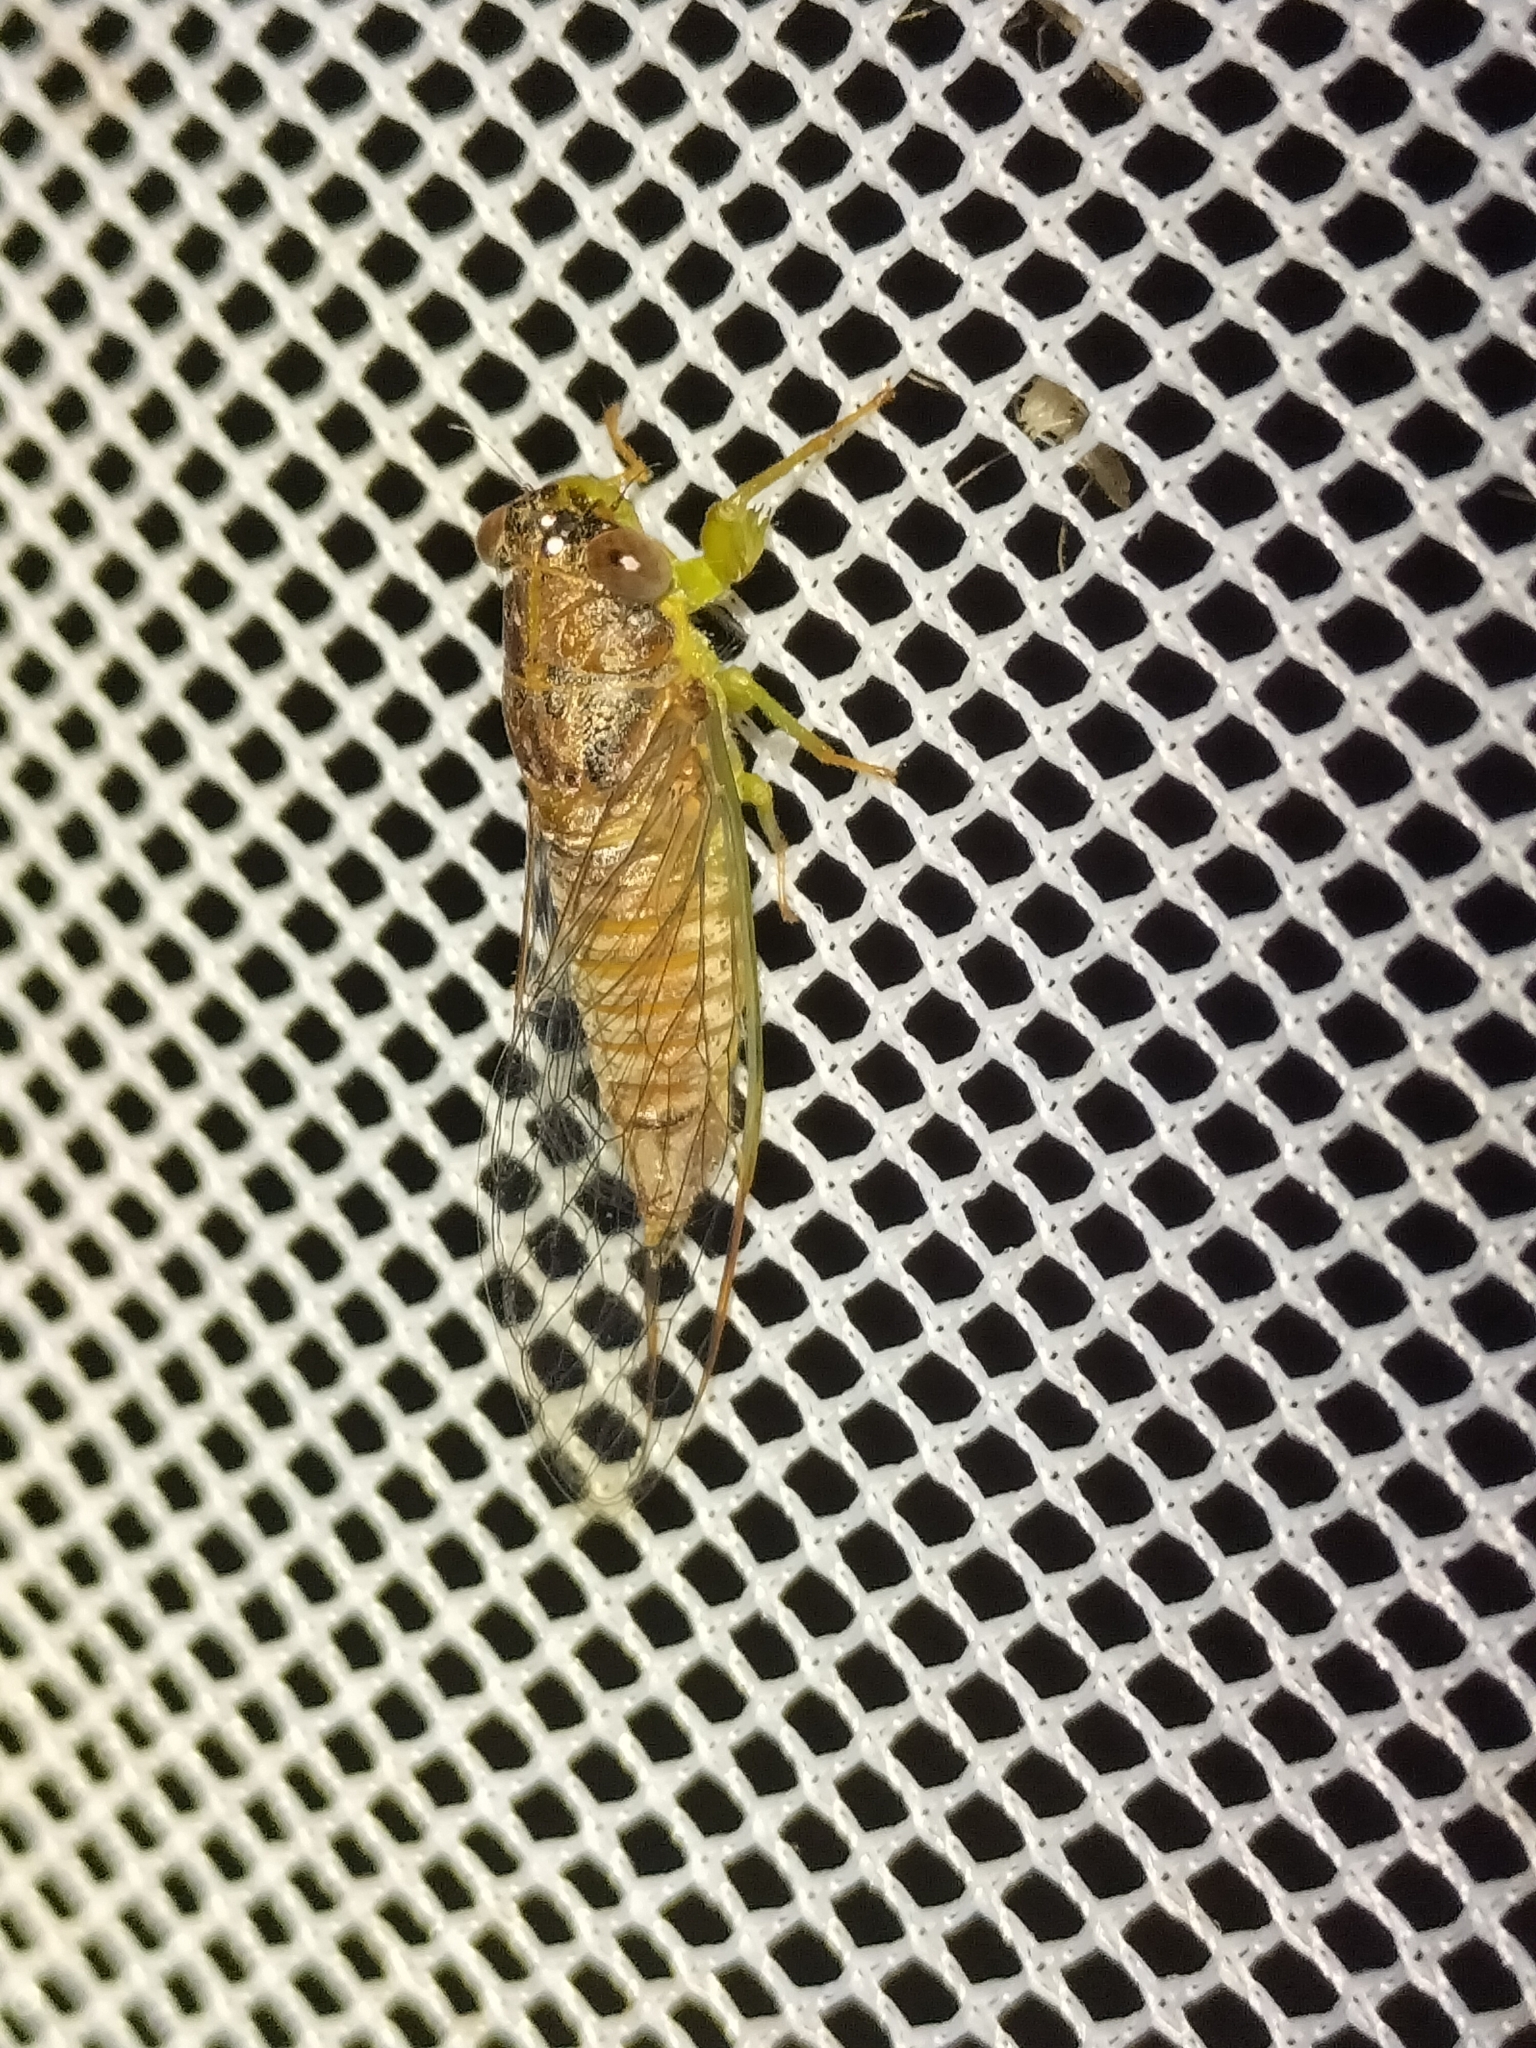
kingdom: Animalia
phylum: Arthropoda
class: Insecta
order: Hemiptera
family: Cicadidae
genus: Taurella
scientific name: Taurella forresti
